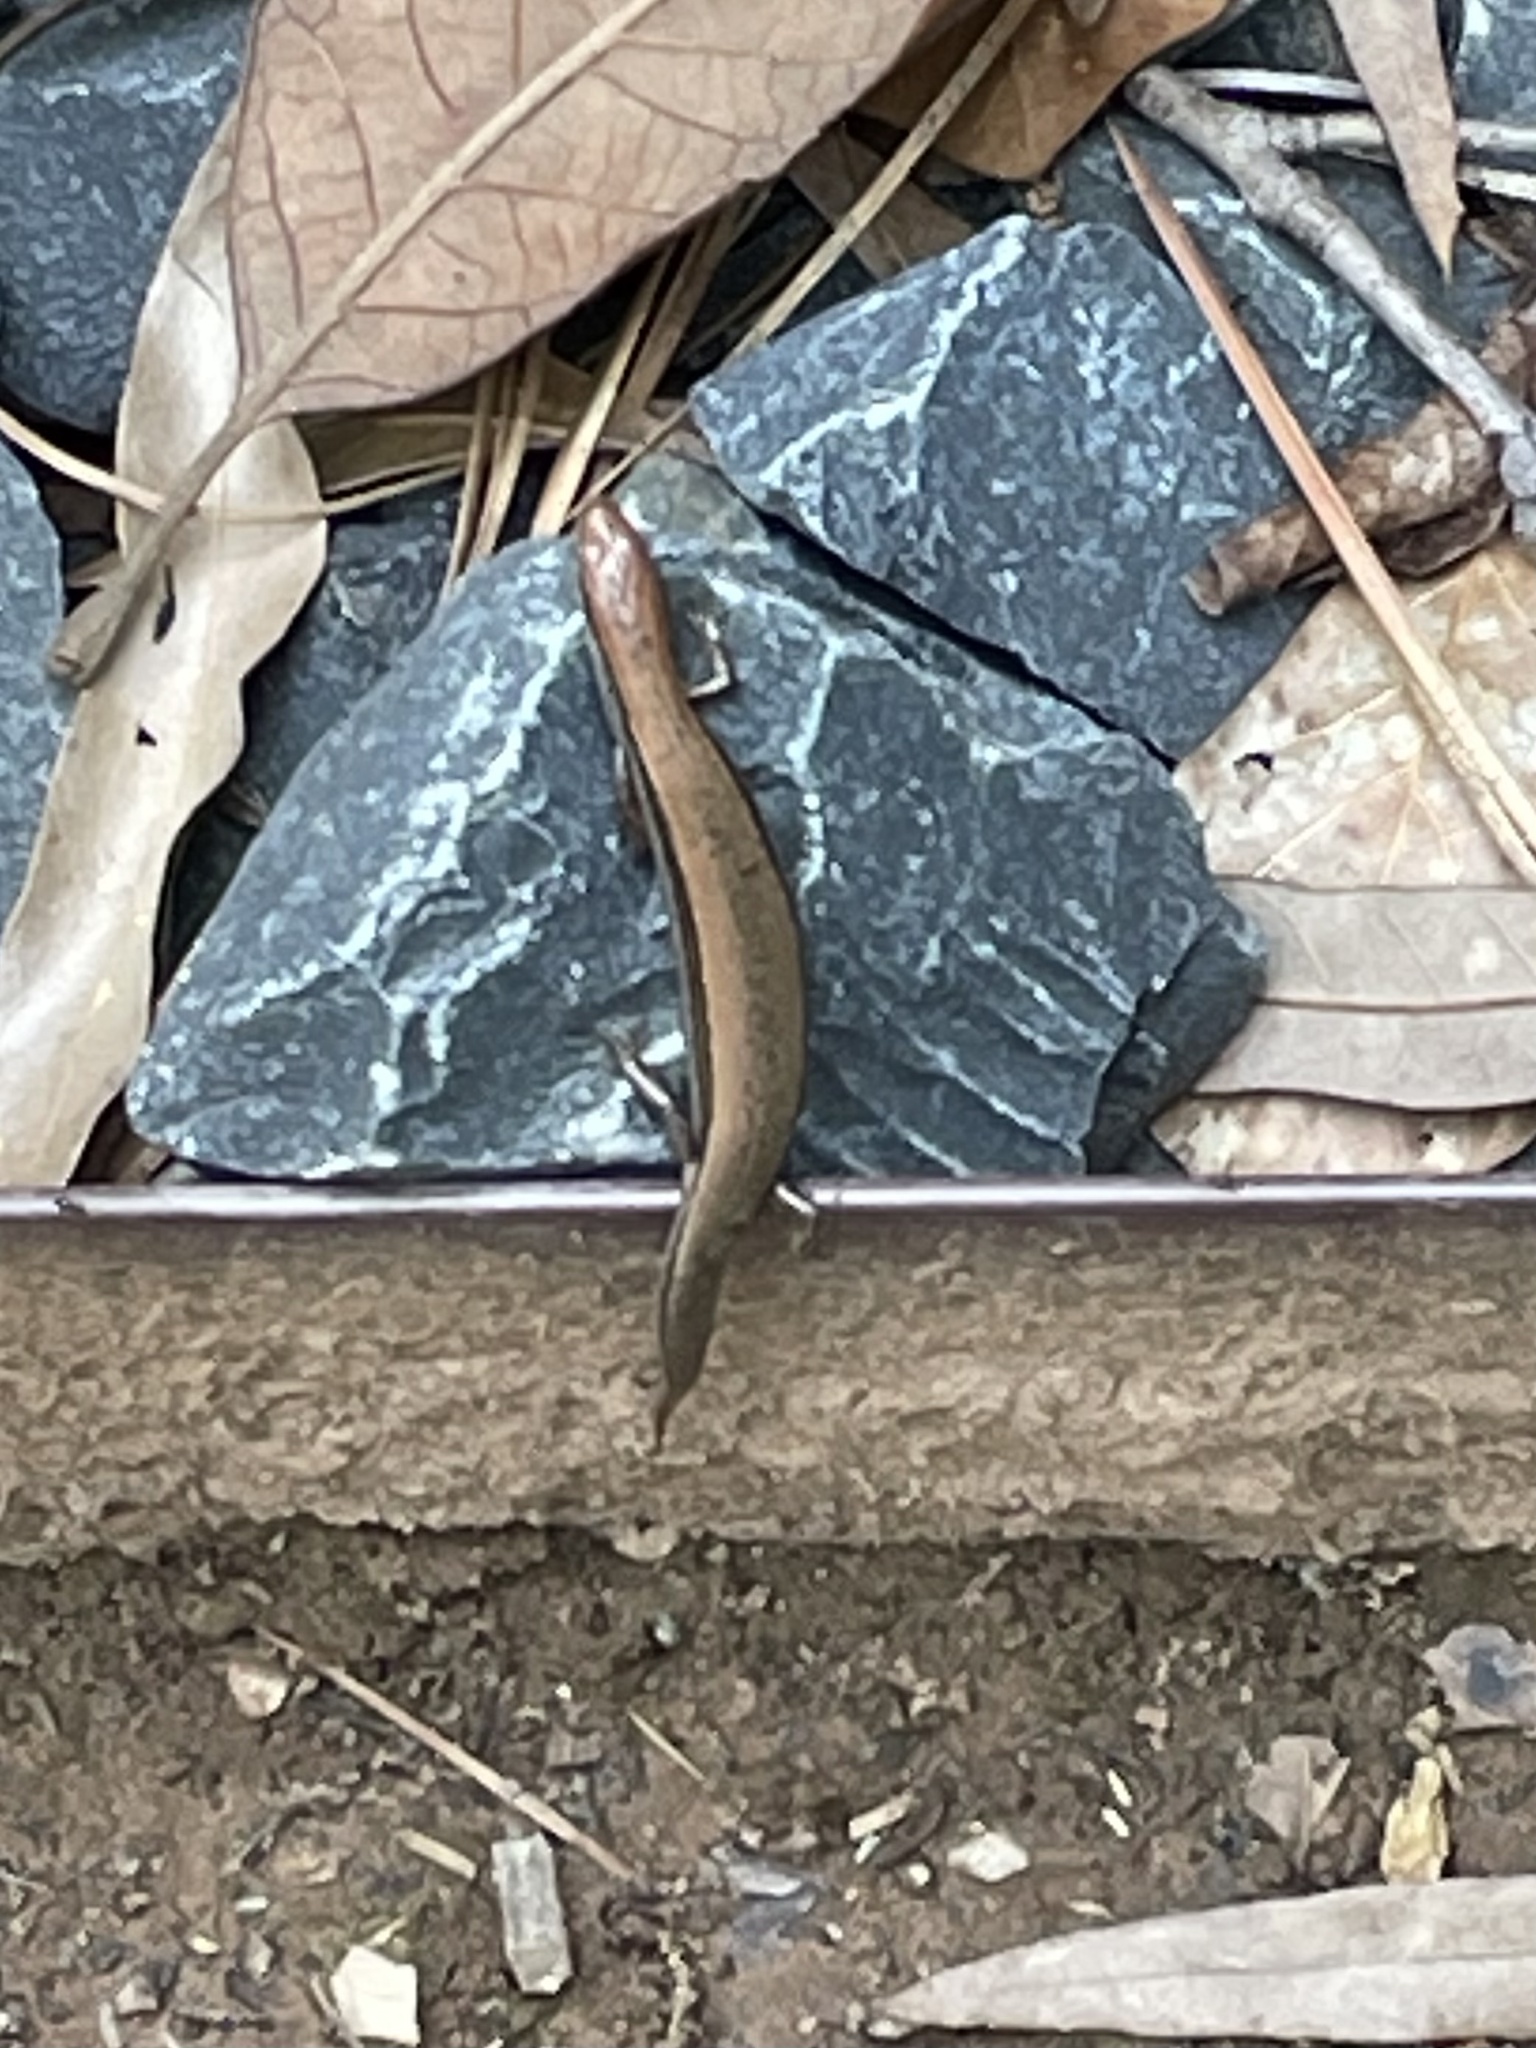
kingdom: Animalia
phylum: Chordata
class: Squamata
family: Scincidae
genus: Scincella
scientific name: Scincella lateralis
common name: Ground skink
